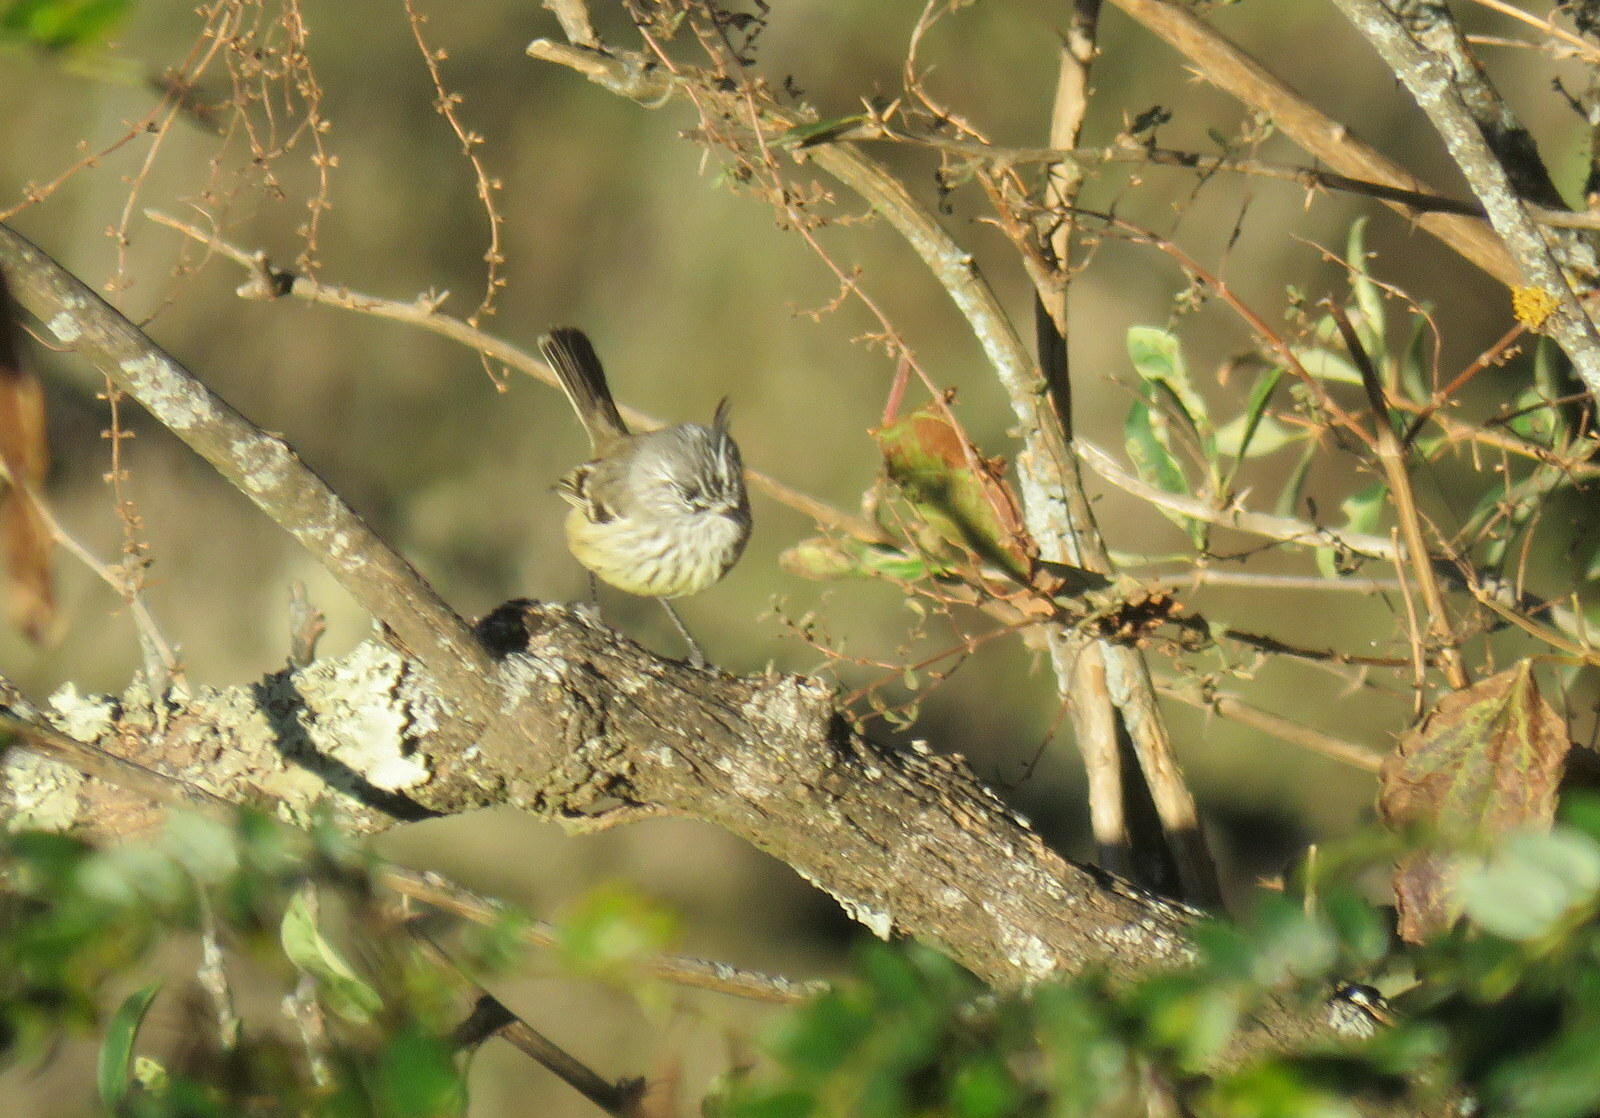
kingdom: Animalia
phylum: Chordata
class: Aves
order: Passeriformes
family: Tyrannidae
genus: Anairetes
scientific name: Anairetes parulus
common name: Tufted tit-tyrant
